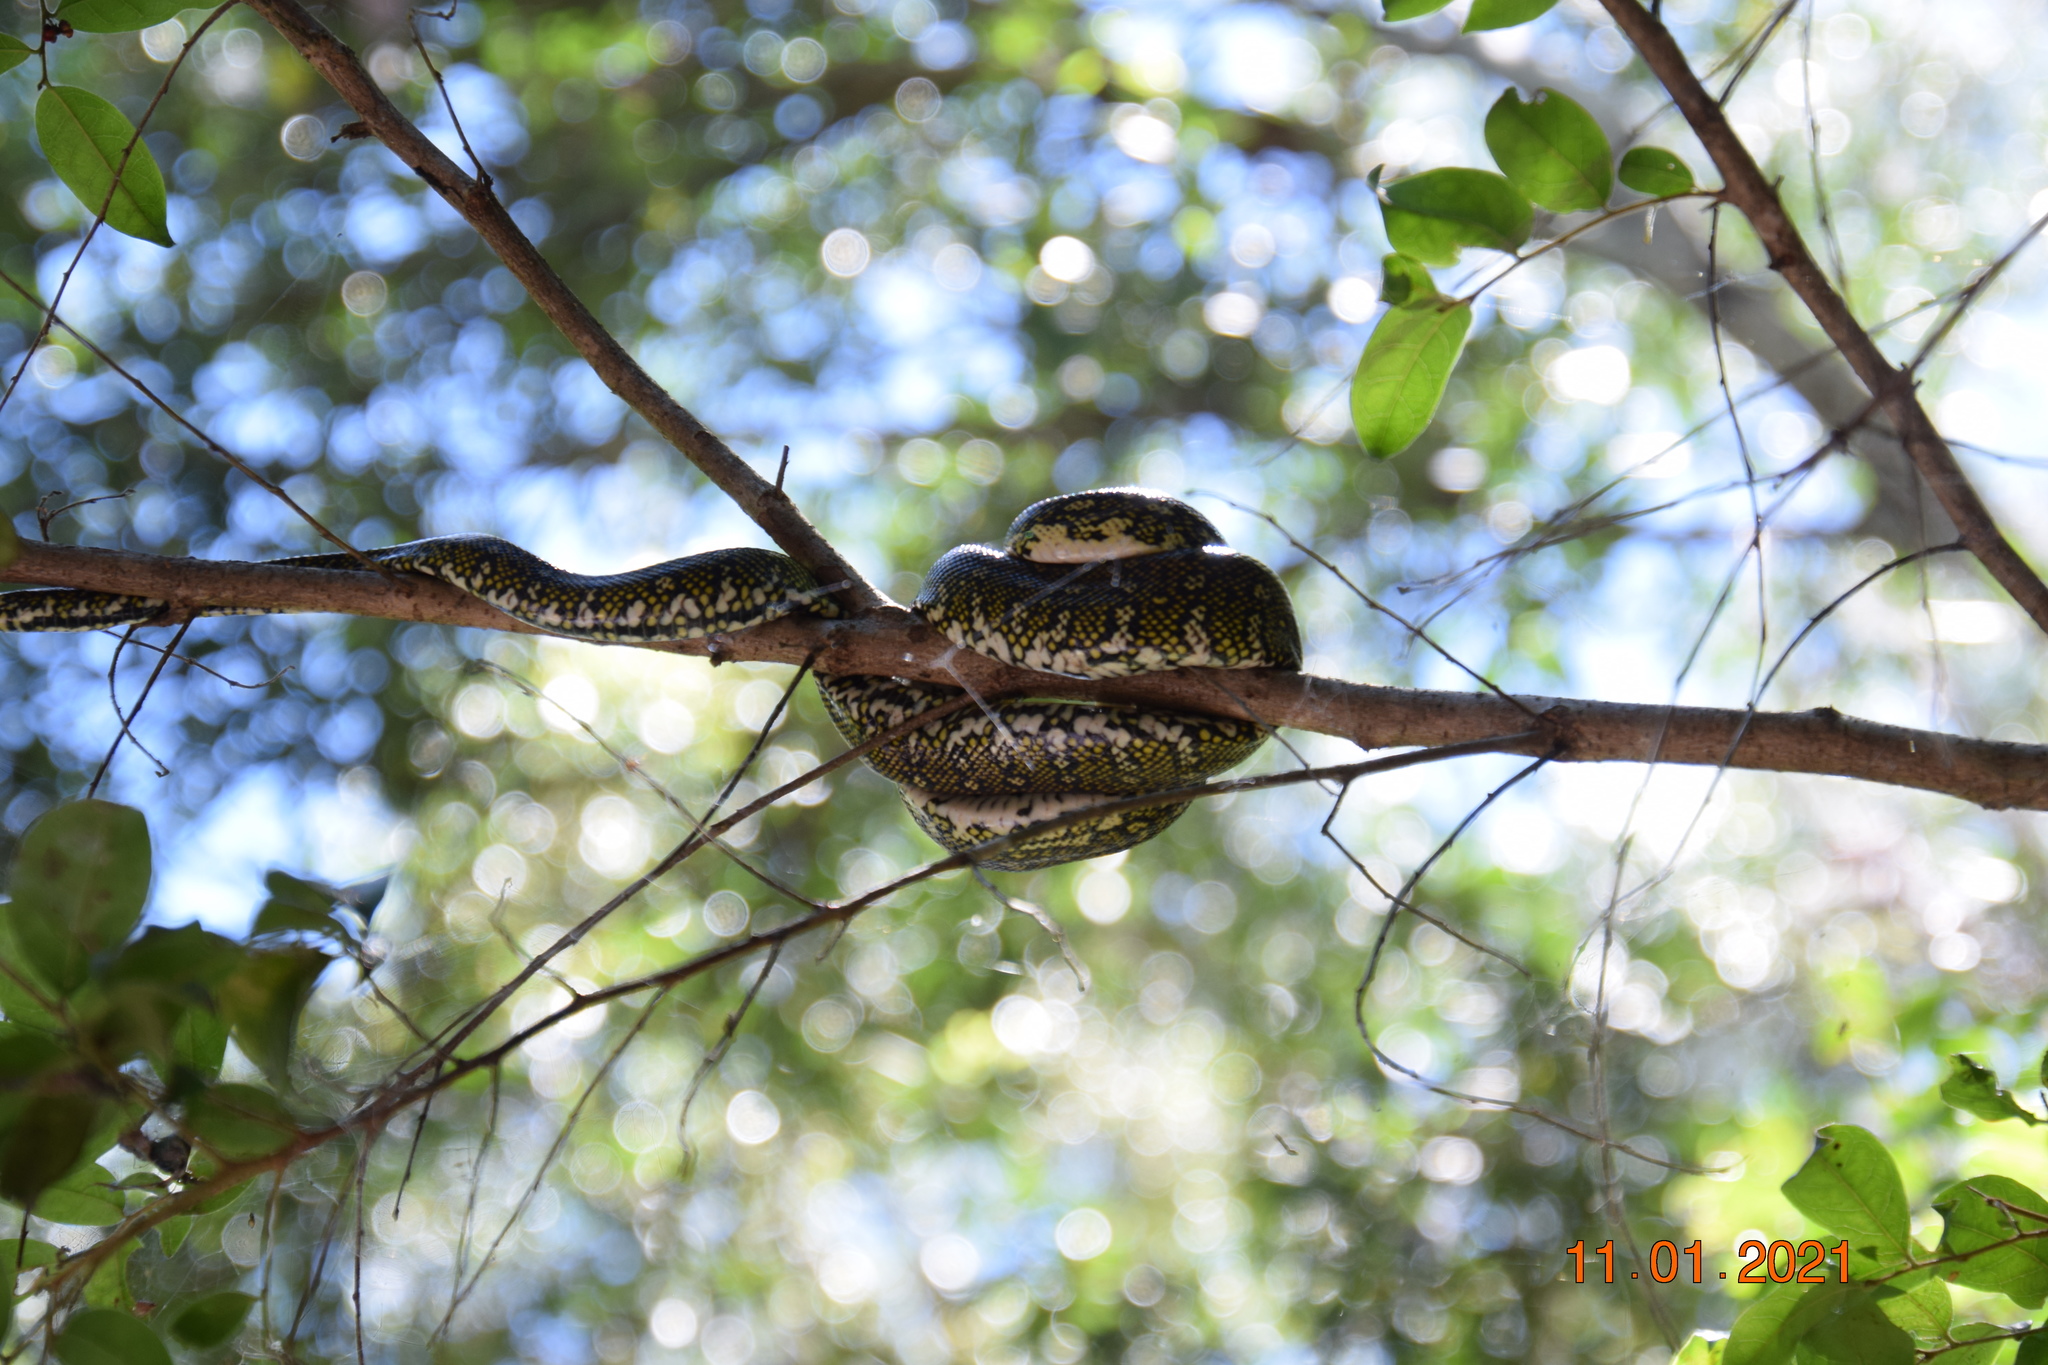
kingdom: Animalia
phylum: Chordata
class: Squamata
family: Pythonidae
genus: Morelia
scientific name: Morelia spilota
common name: Carpet python
